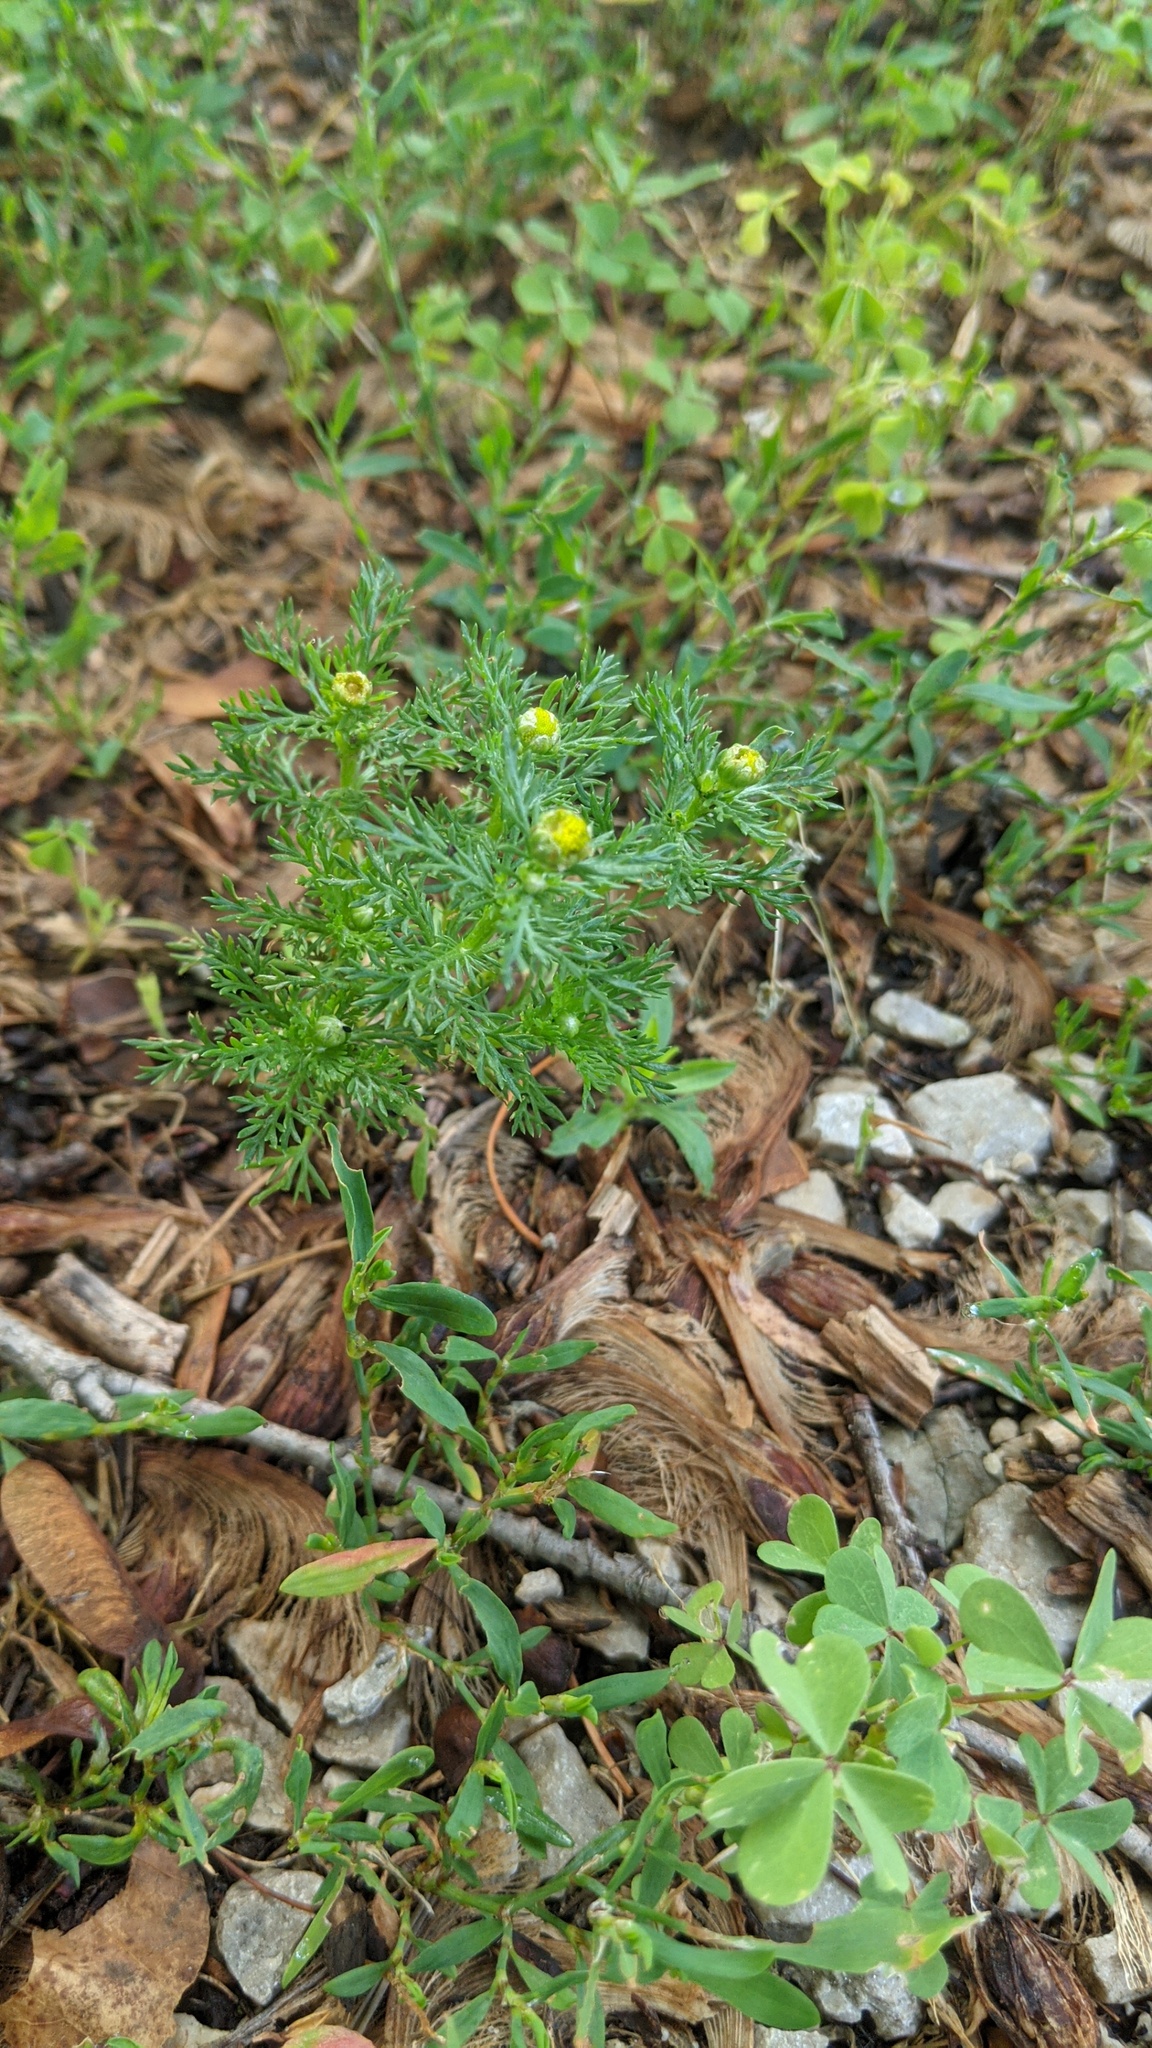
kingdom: Plantae
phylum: Tracheophyta
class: Magnoliopsida
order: Asterales
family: Asteraceae
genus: Matricaria
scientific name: Matricaria discoidea
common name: Disc mayweed
